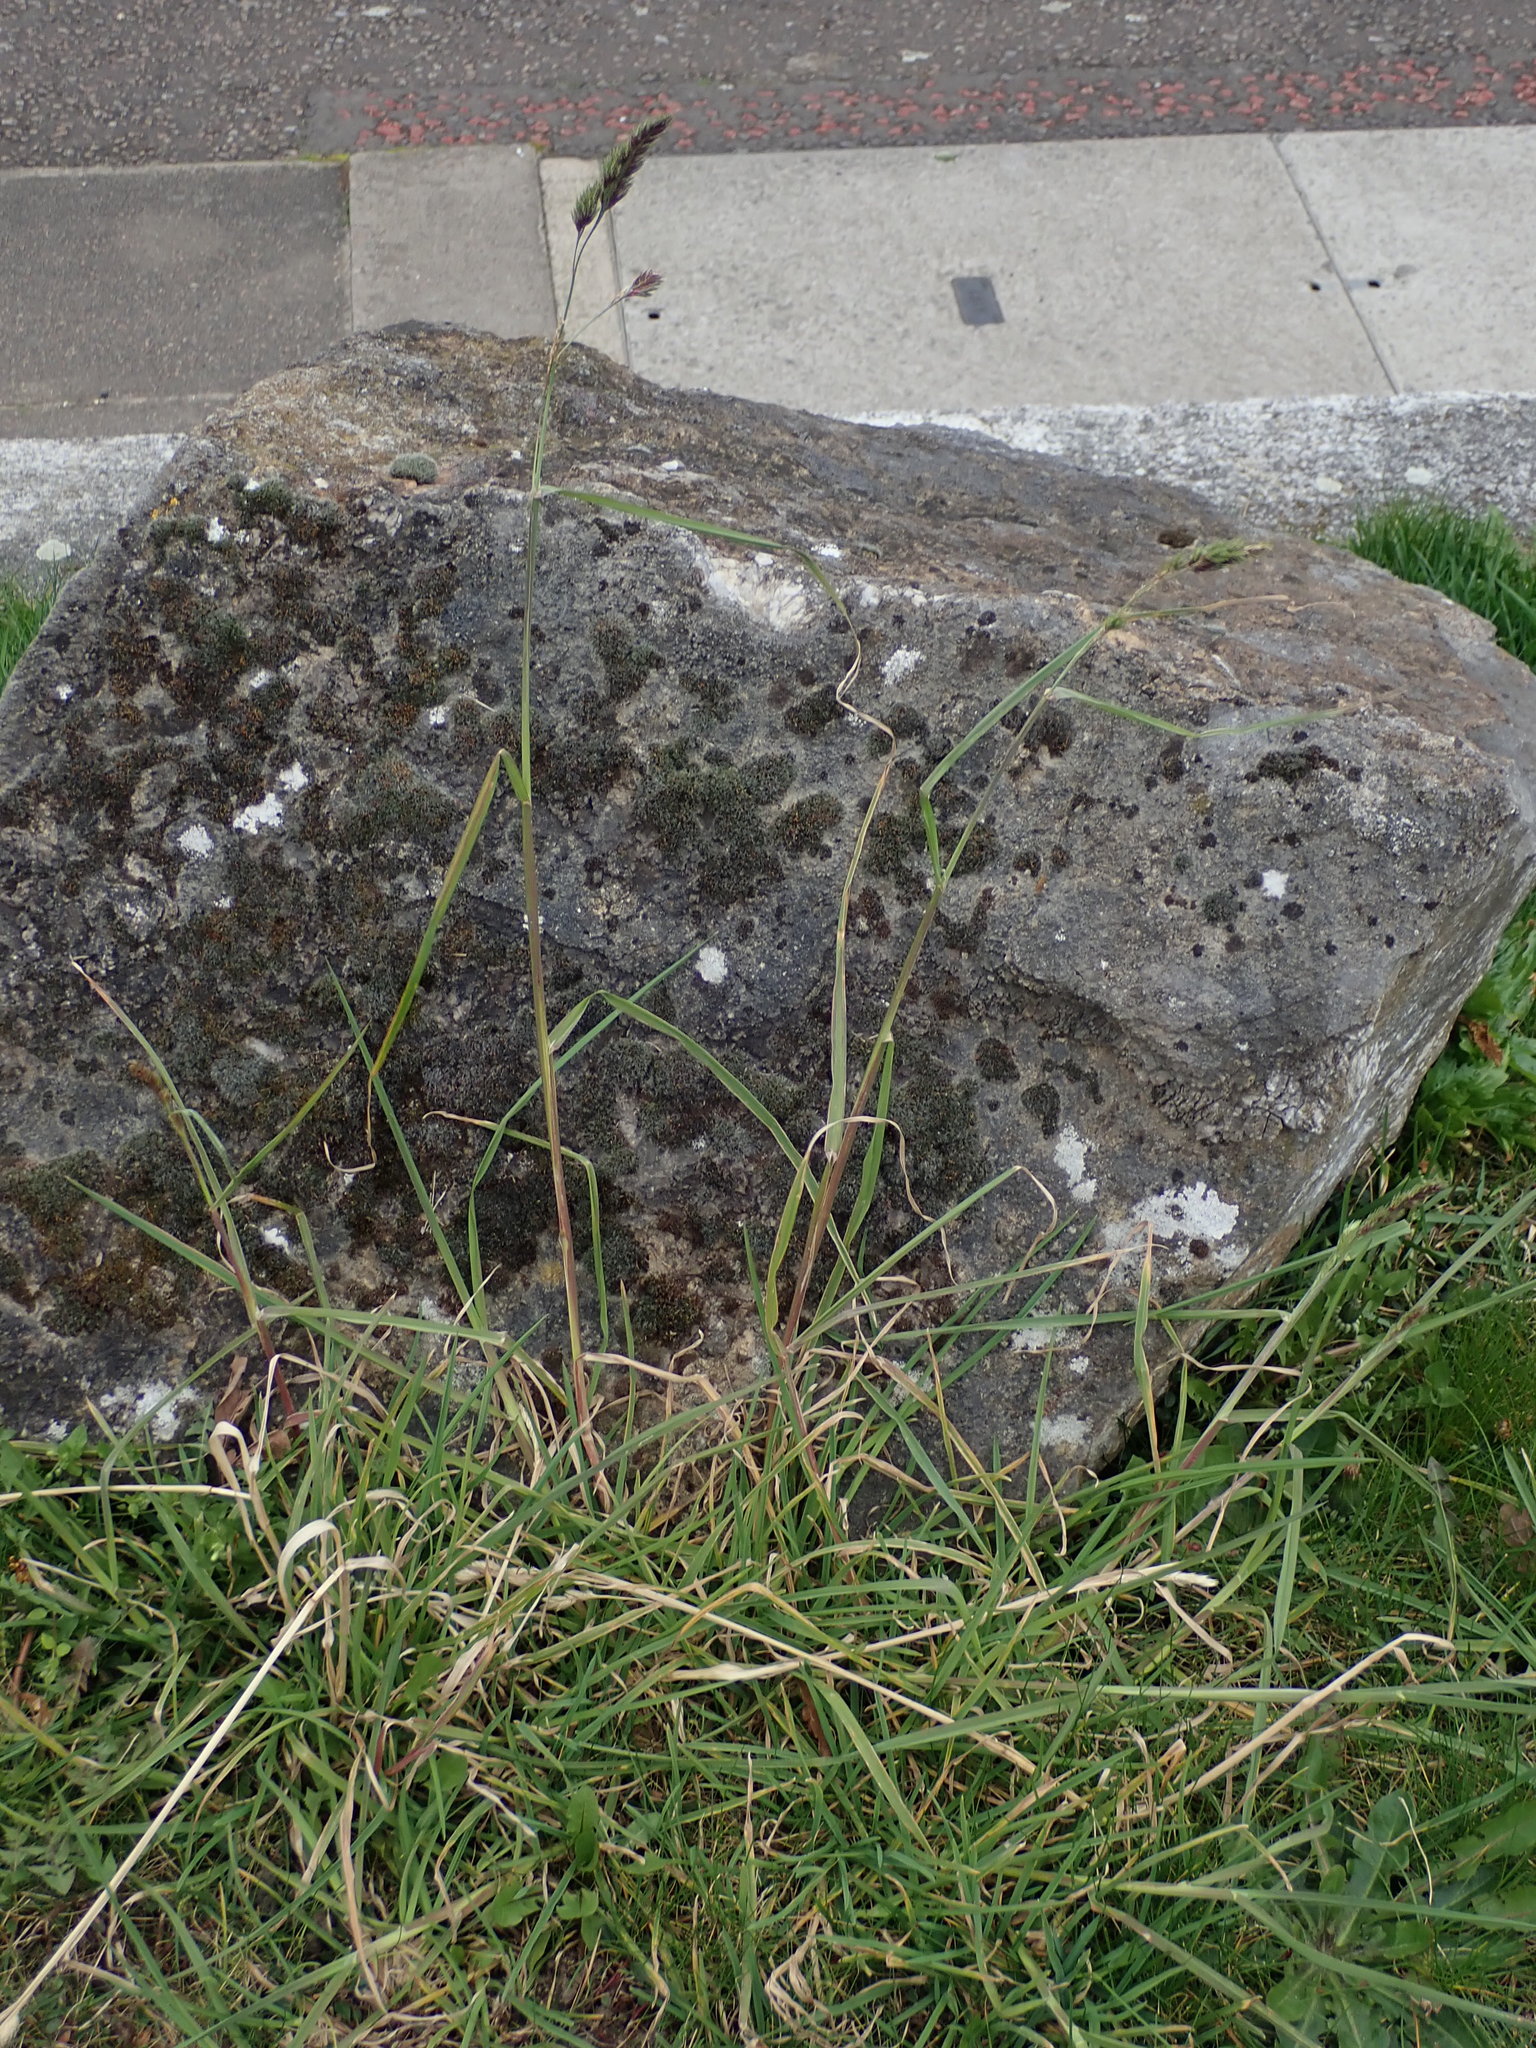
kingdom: Plantae
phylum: Tracheophyta
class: Liliopsida
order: Poales
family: Poaceae
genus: Dactylis
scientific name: Dactylis glomerata
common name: Orchardgrass
